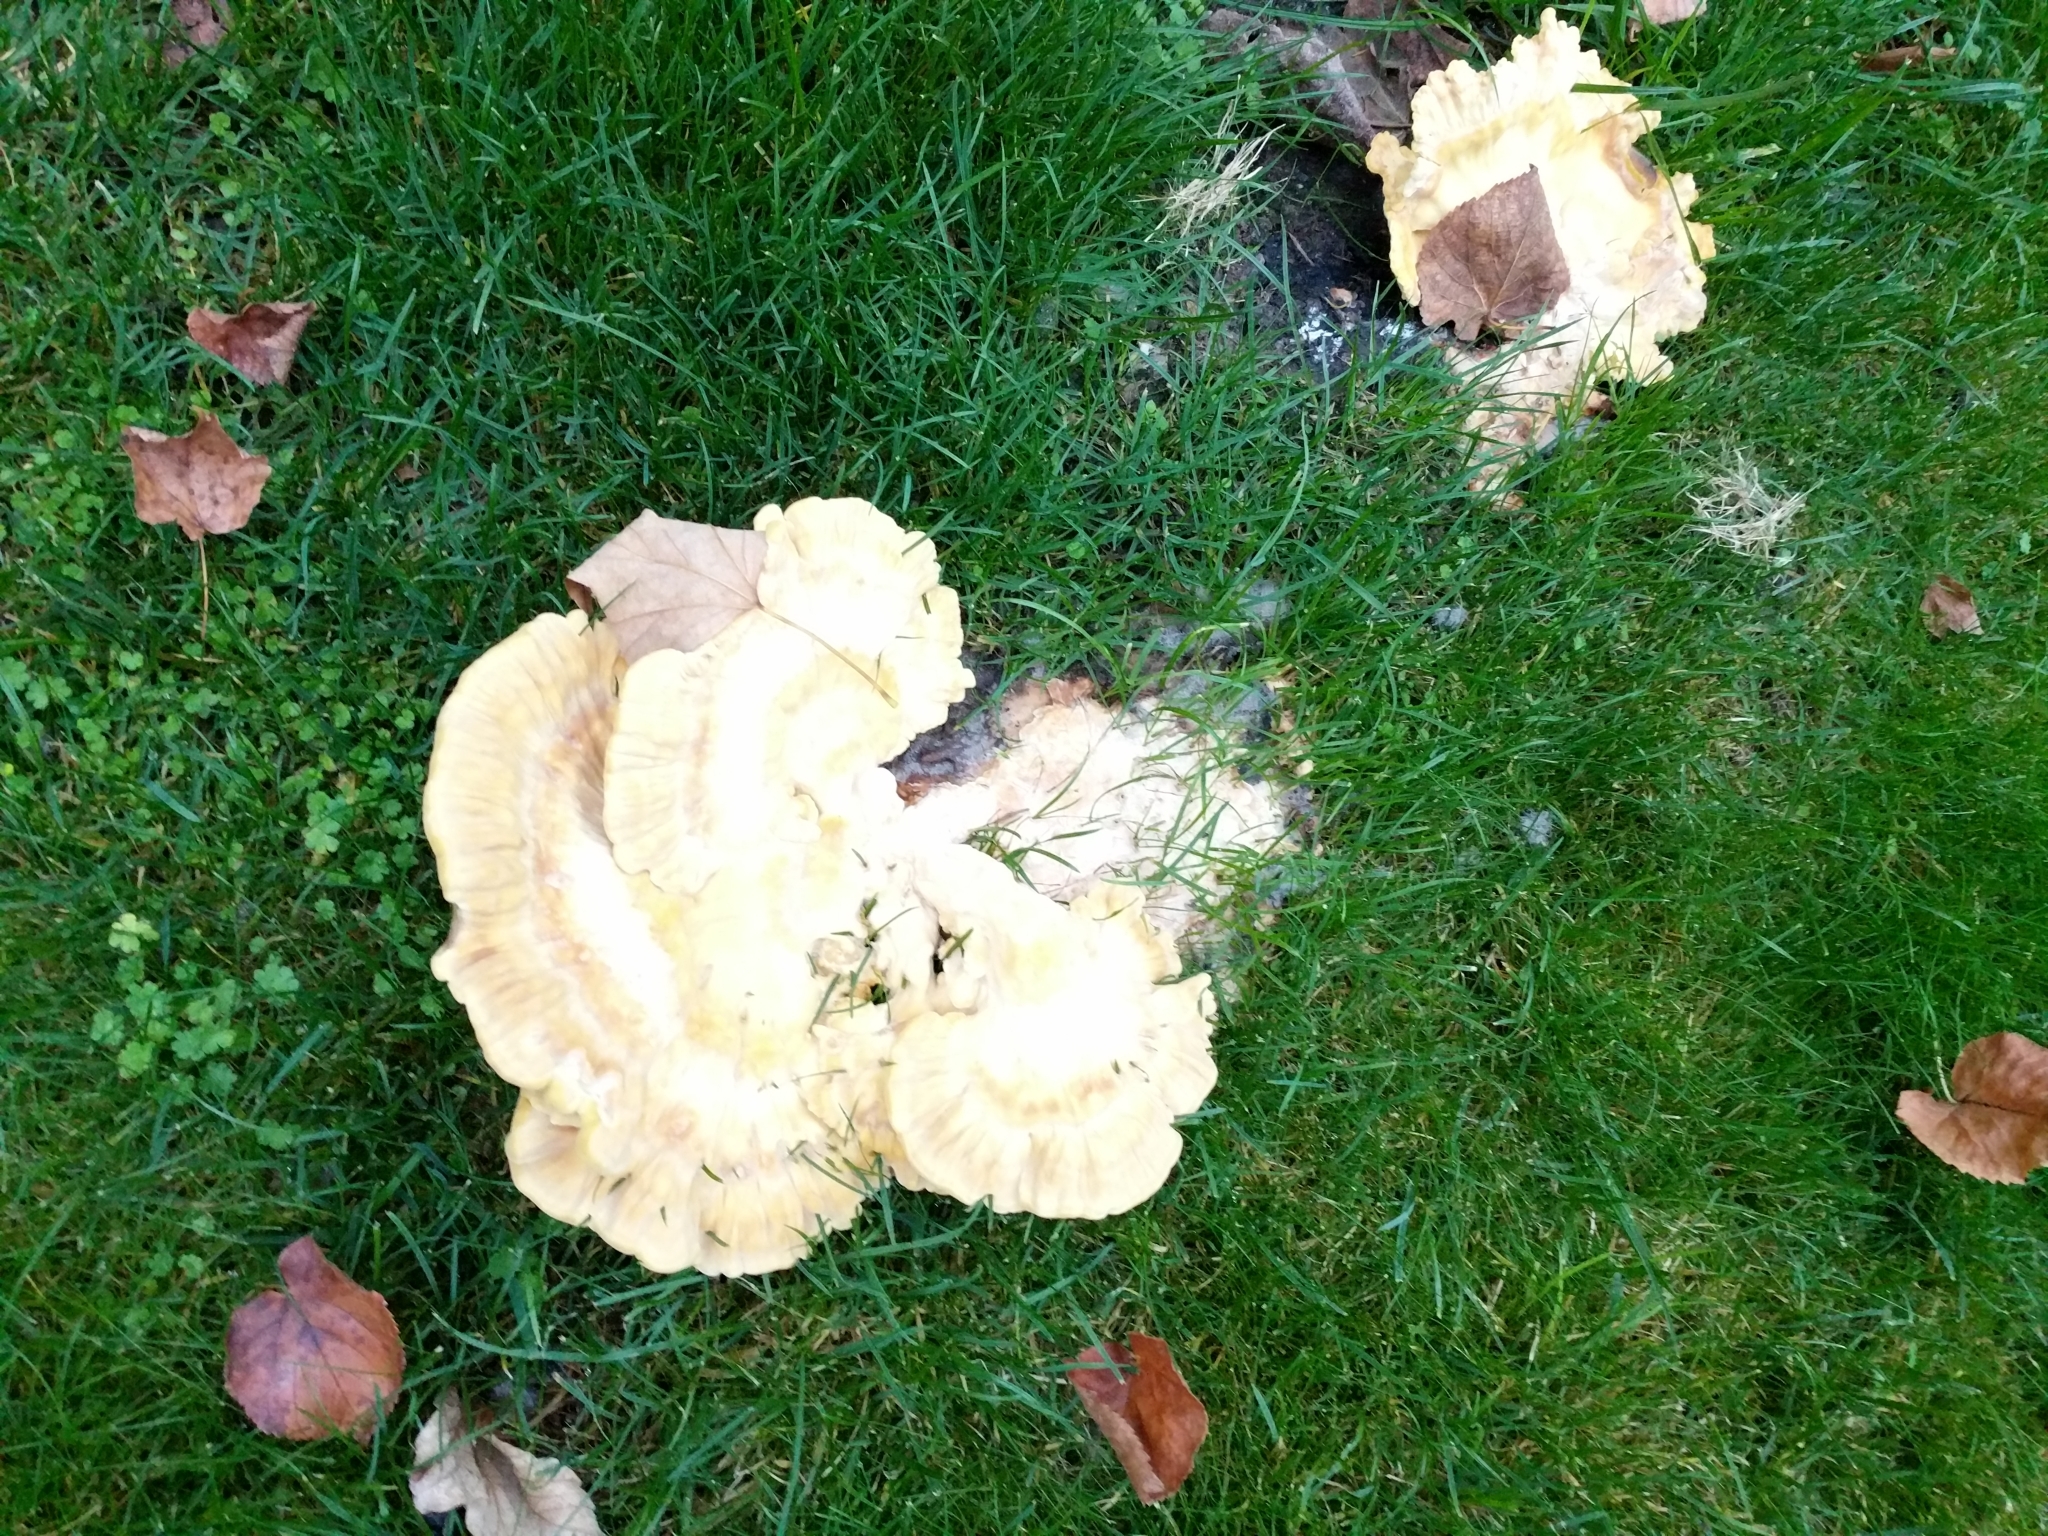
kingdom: Fungi
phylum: Basidiomycota
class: Agaricomycetes
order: Polyporales
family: Laetiporaceae
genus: Laetiporus
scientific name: Laetiporus sulphureus
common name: Chicken of the woods
